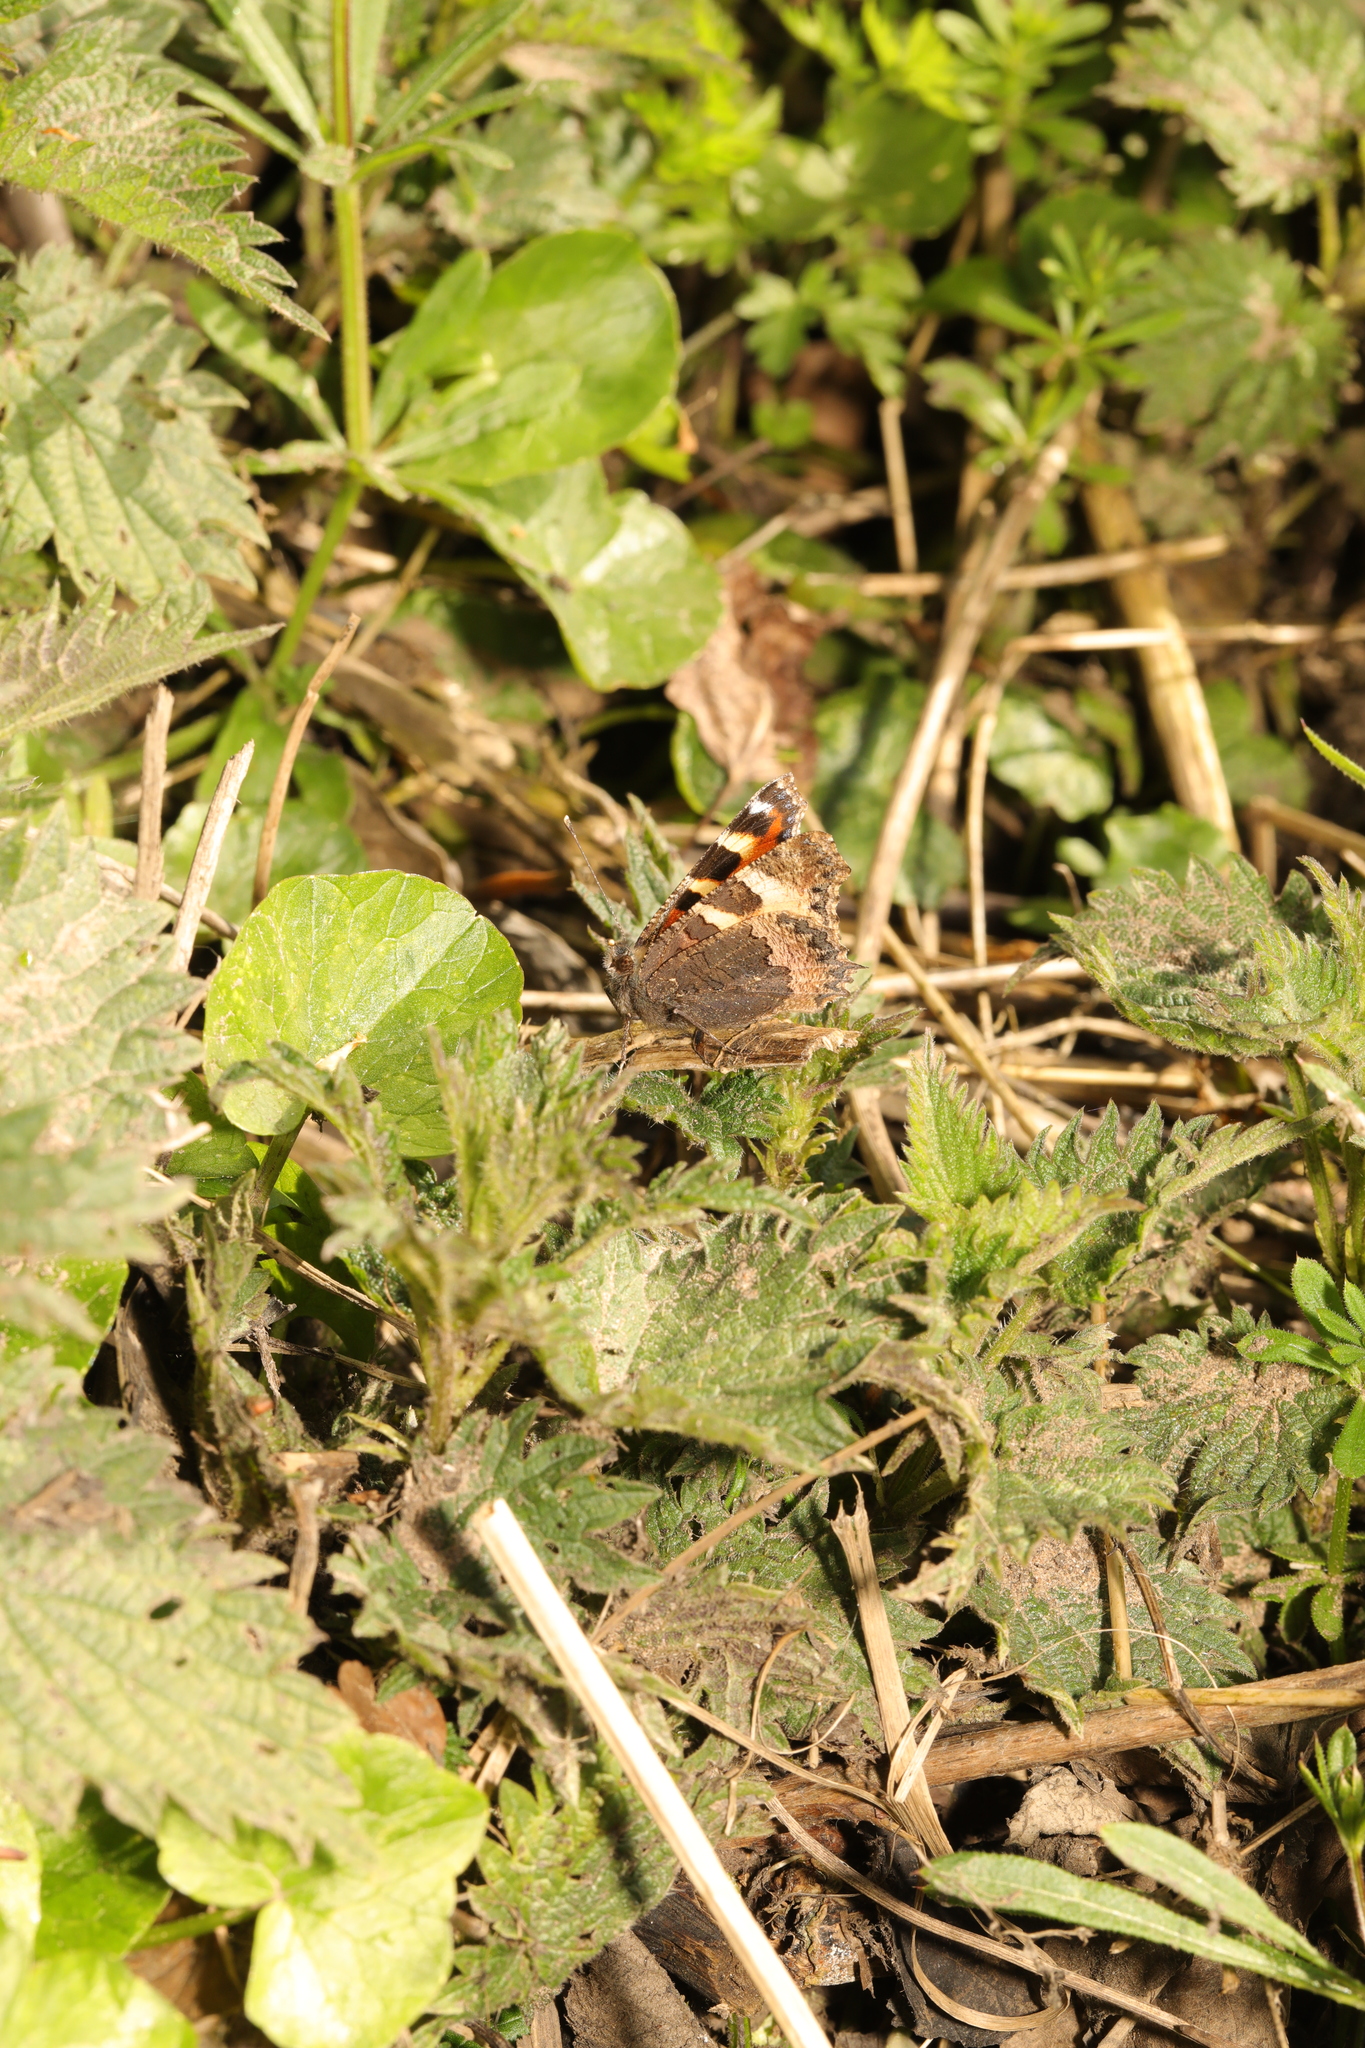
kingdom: Animalia
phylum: Arthropoda
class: Insecta
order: Lepidoptera
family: Nymphalidae
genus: Aglais
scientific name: Aglais urticae
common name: Small tortoiseshell
